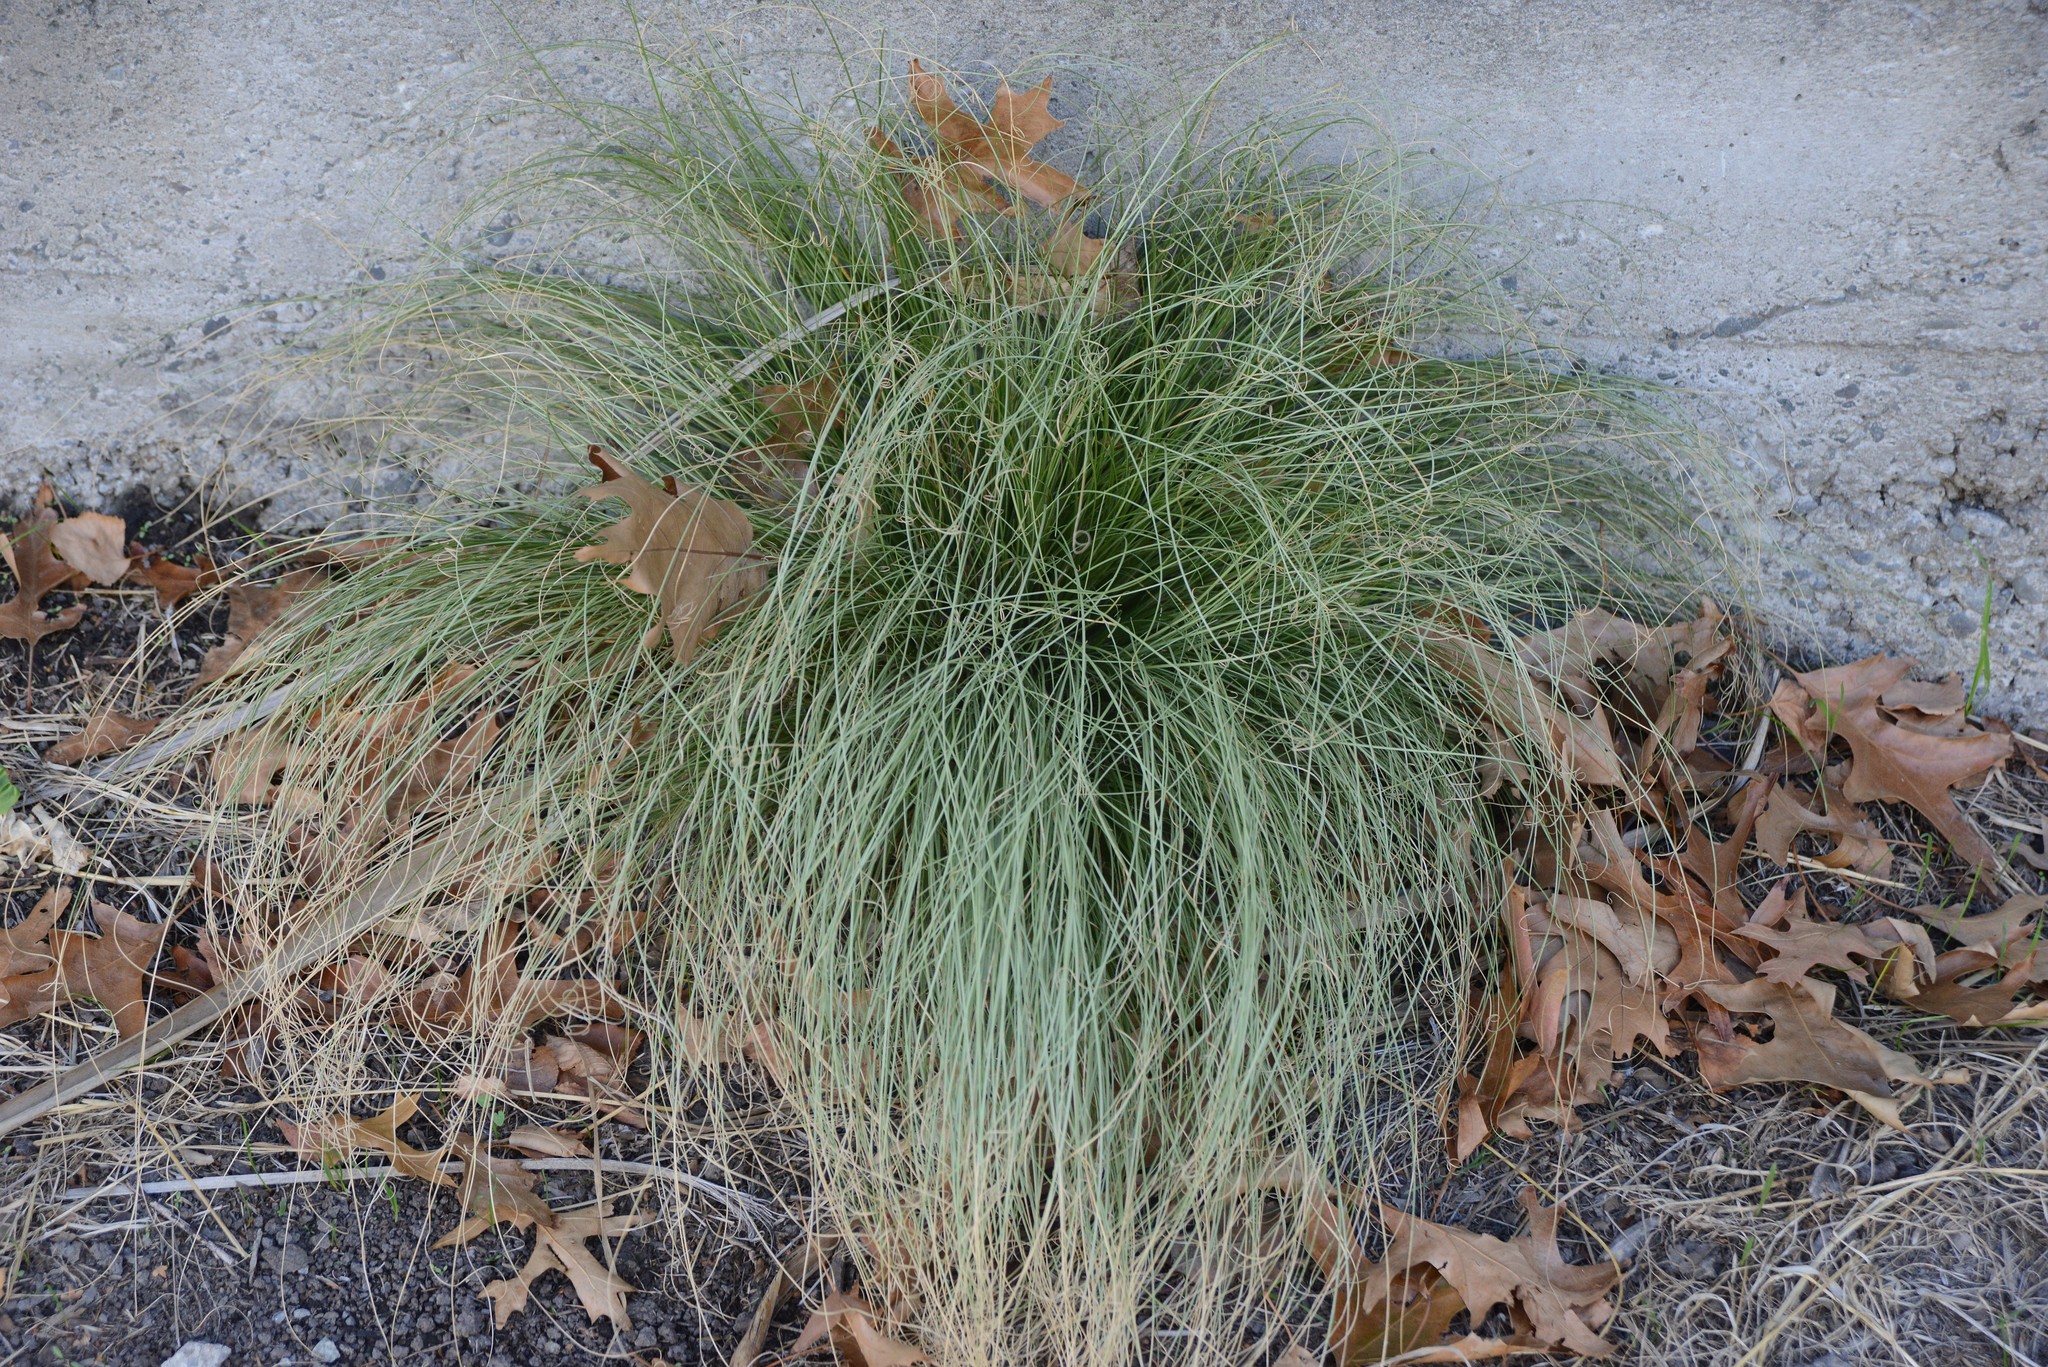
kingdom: Plantae
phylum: Tracheophyta
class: Liliopsida
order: Poales
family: Cyperaceae
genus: Carex
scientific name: Carex comans
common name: Longwood tussock
